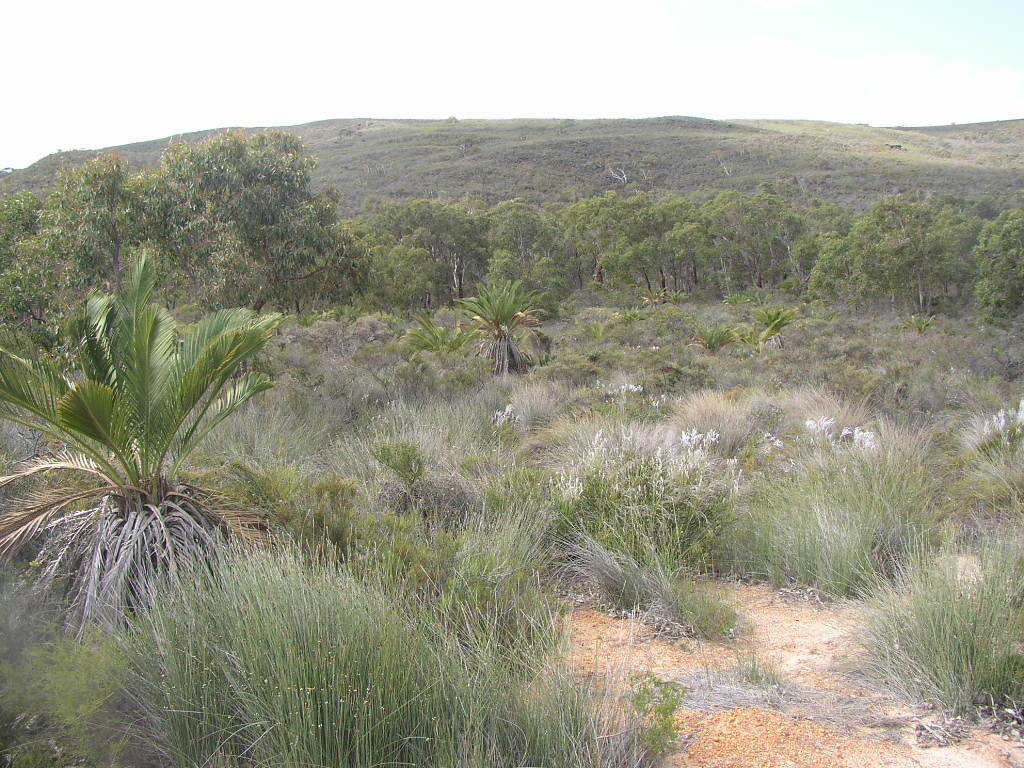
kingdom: Plantae
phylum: Tracheophyta
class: Cycadopsida
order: Cycadales
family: Zamiaceae
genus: Macrozamia
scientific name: Macrozamia fraseri
